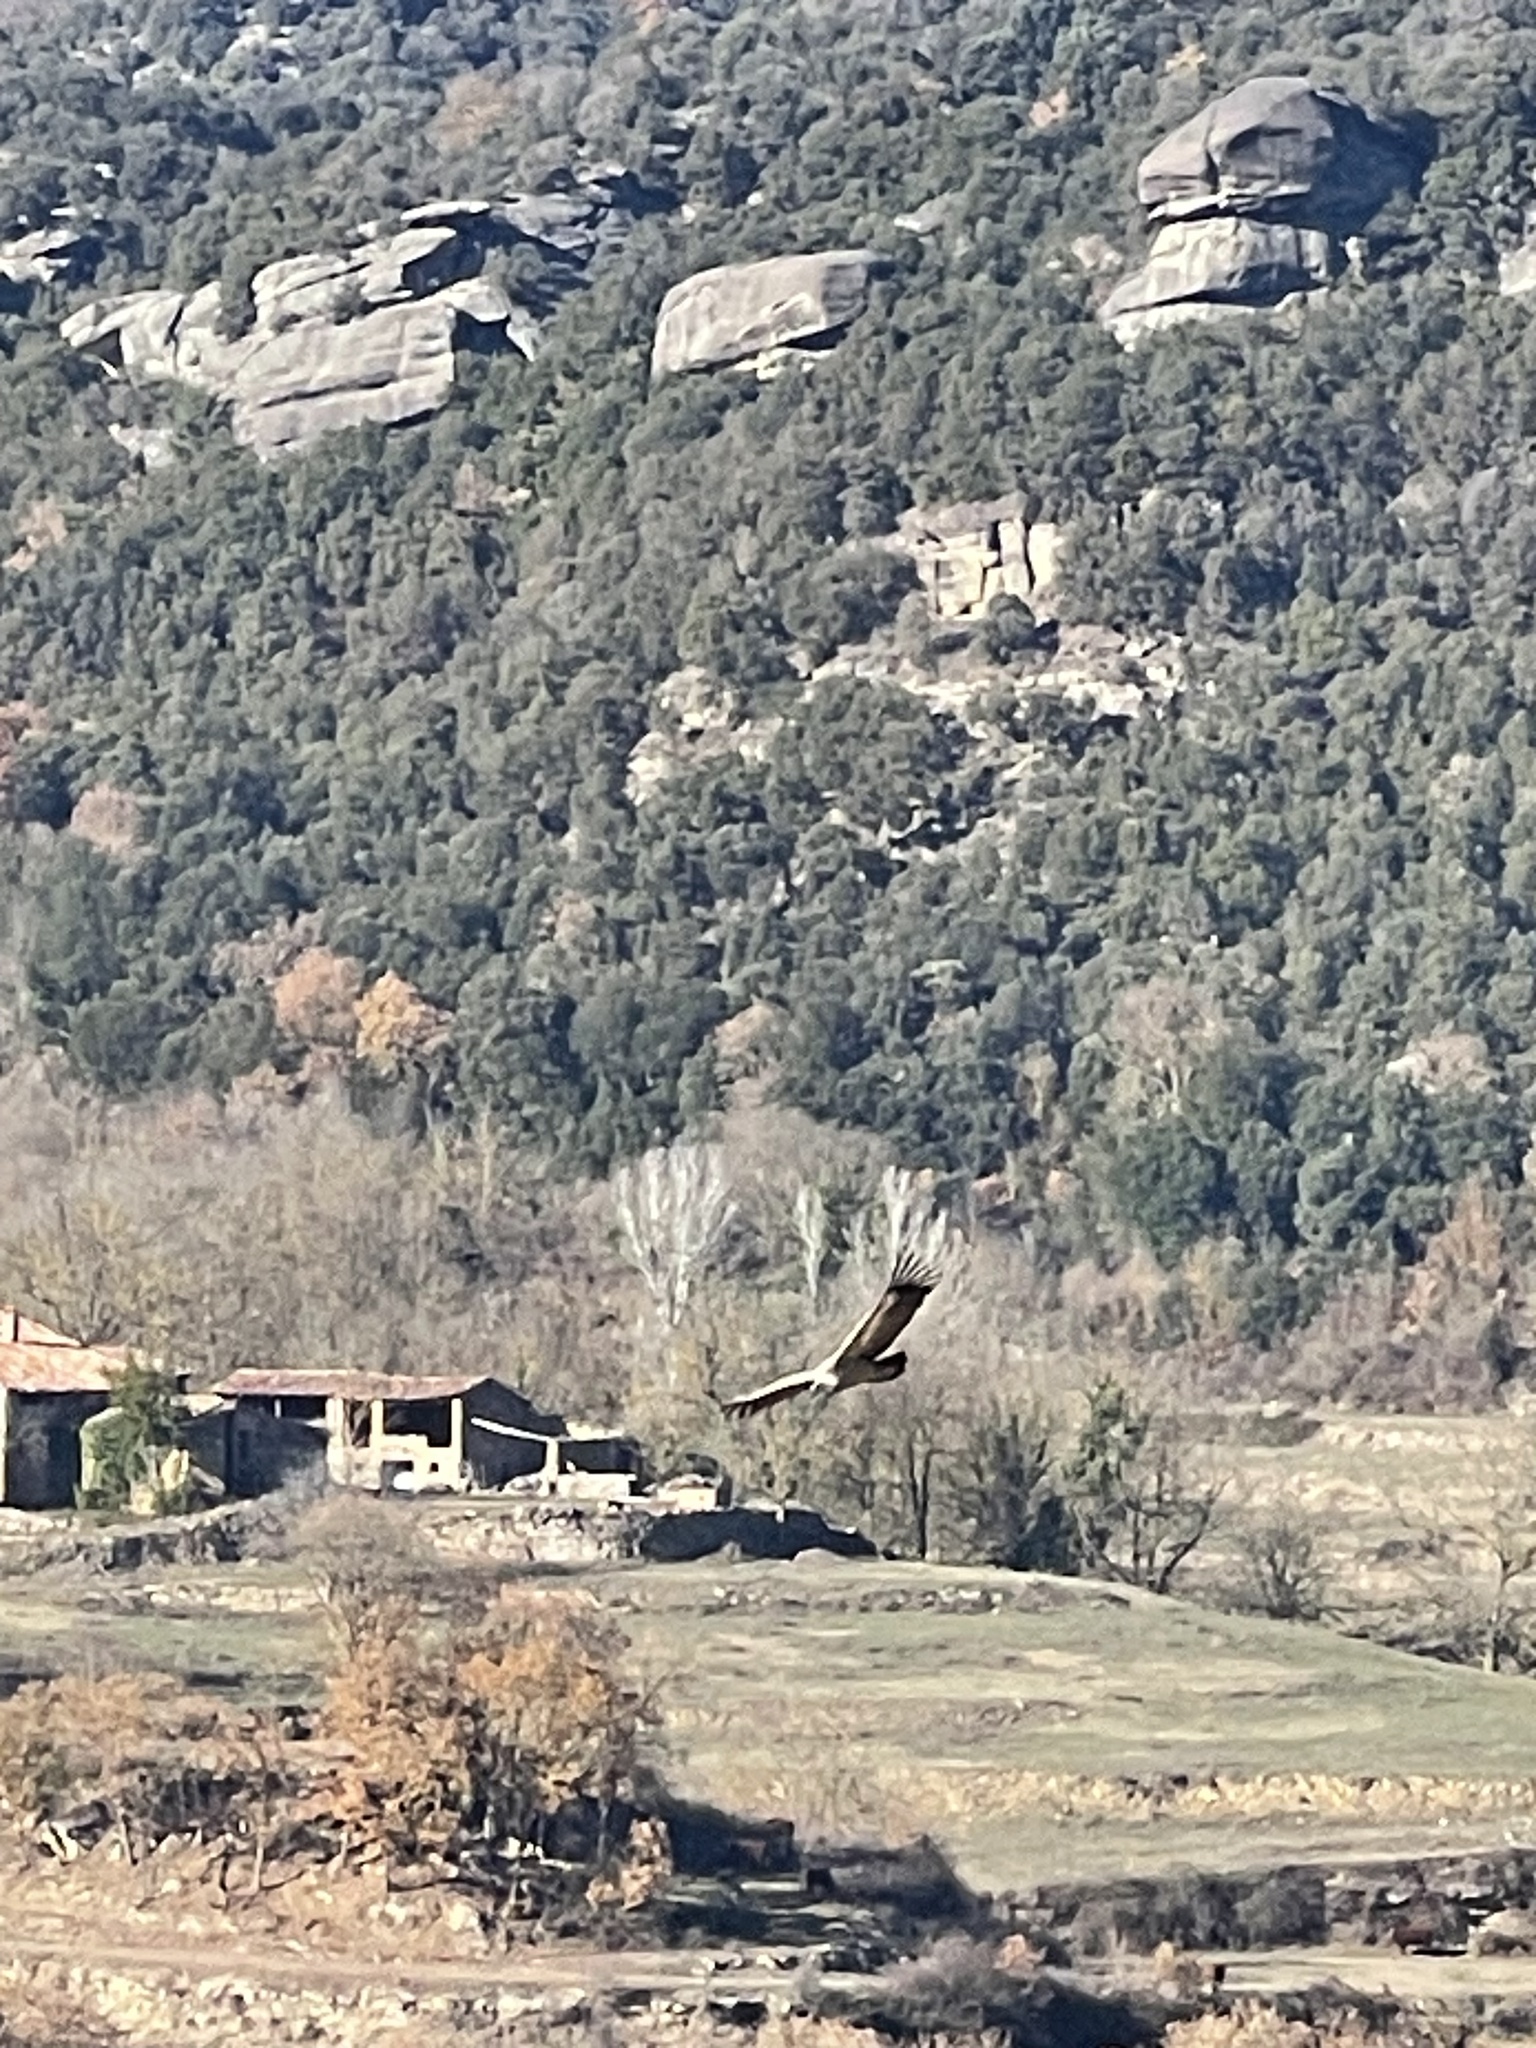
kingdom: Animalia
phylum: Chordata
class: Aves
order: Accipitriformes
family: Accipitridae
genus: Gyps
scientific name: Gyps fulvus
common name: Griffon vulture
